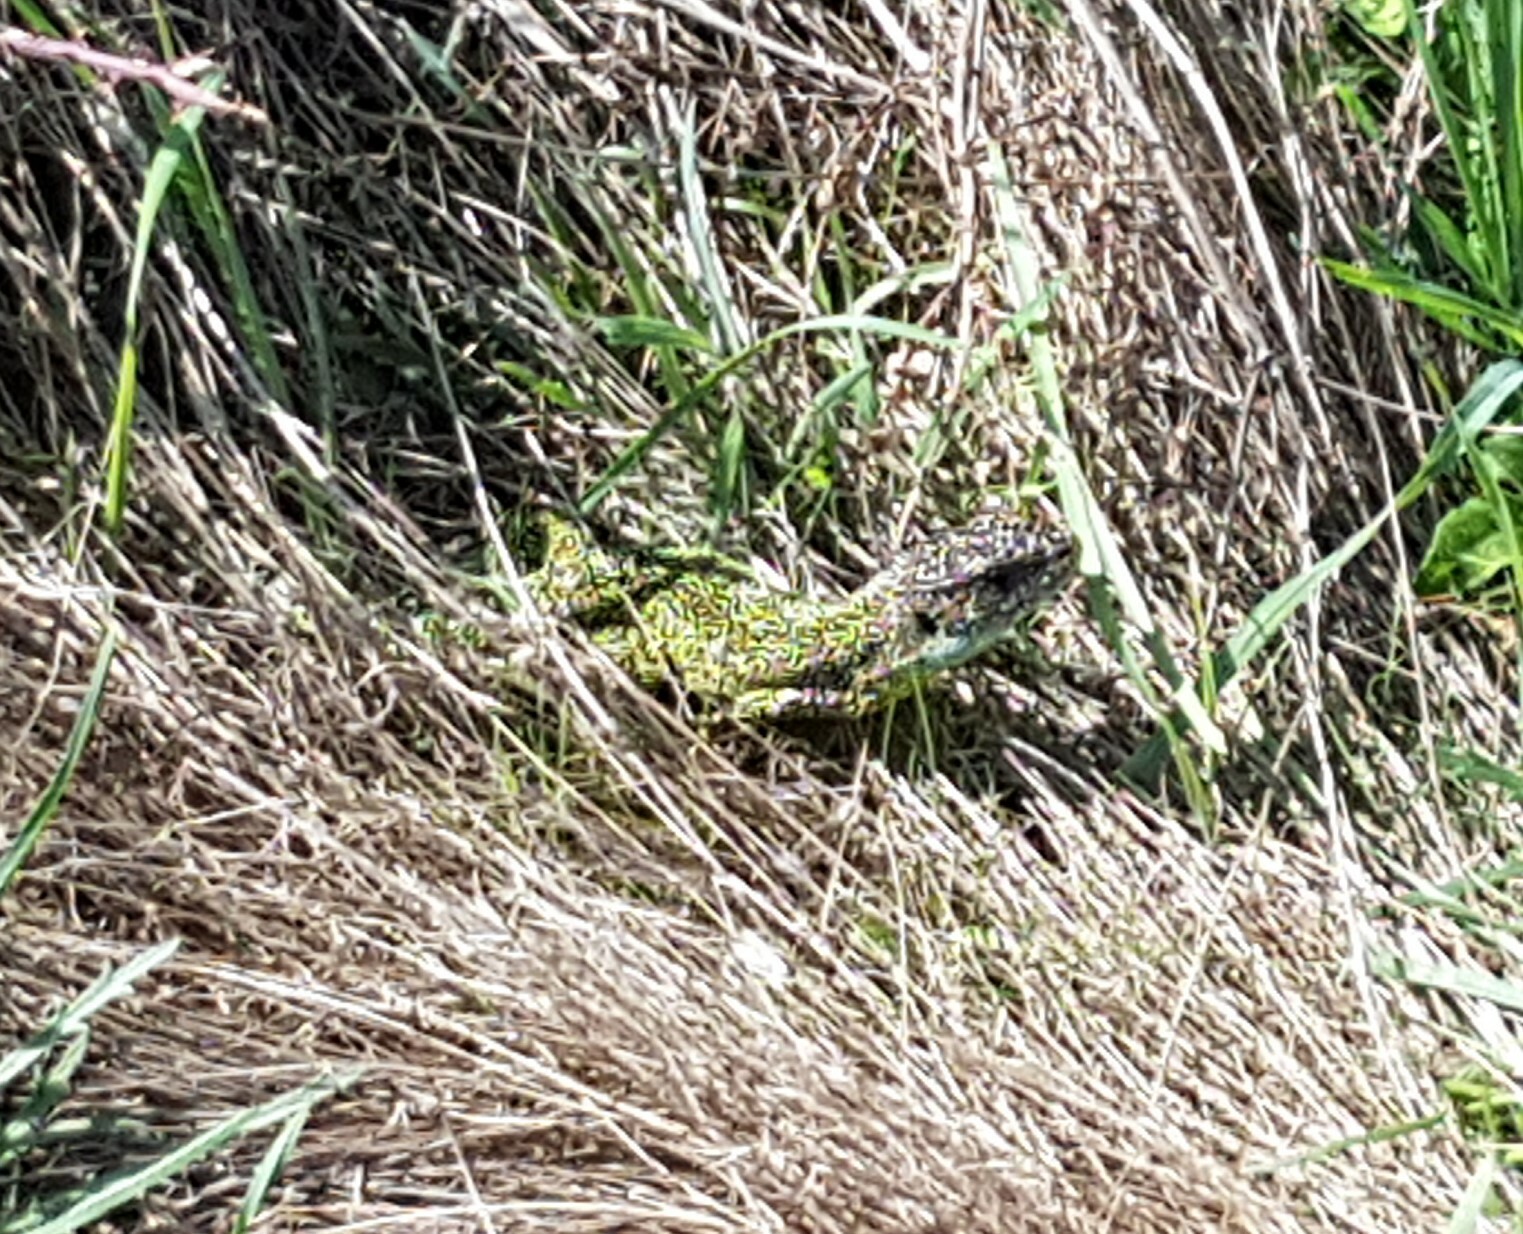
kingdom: Animalia
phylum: Chordata
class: Squamata
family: Lacertidae
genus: Lacerta
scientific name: Lacerta bilineata
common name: Western green lizard
